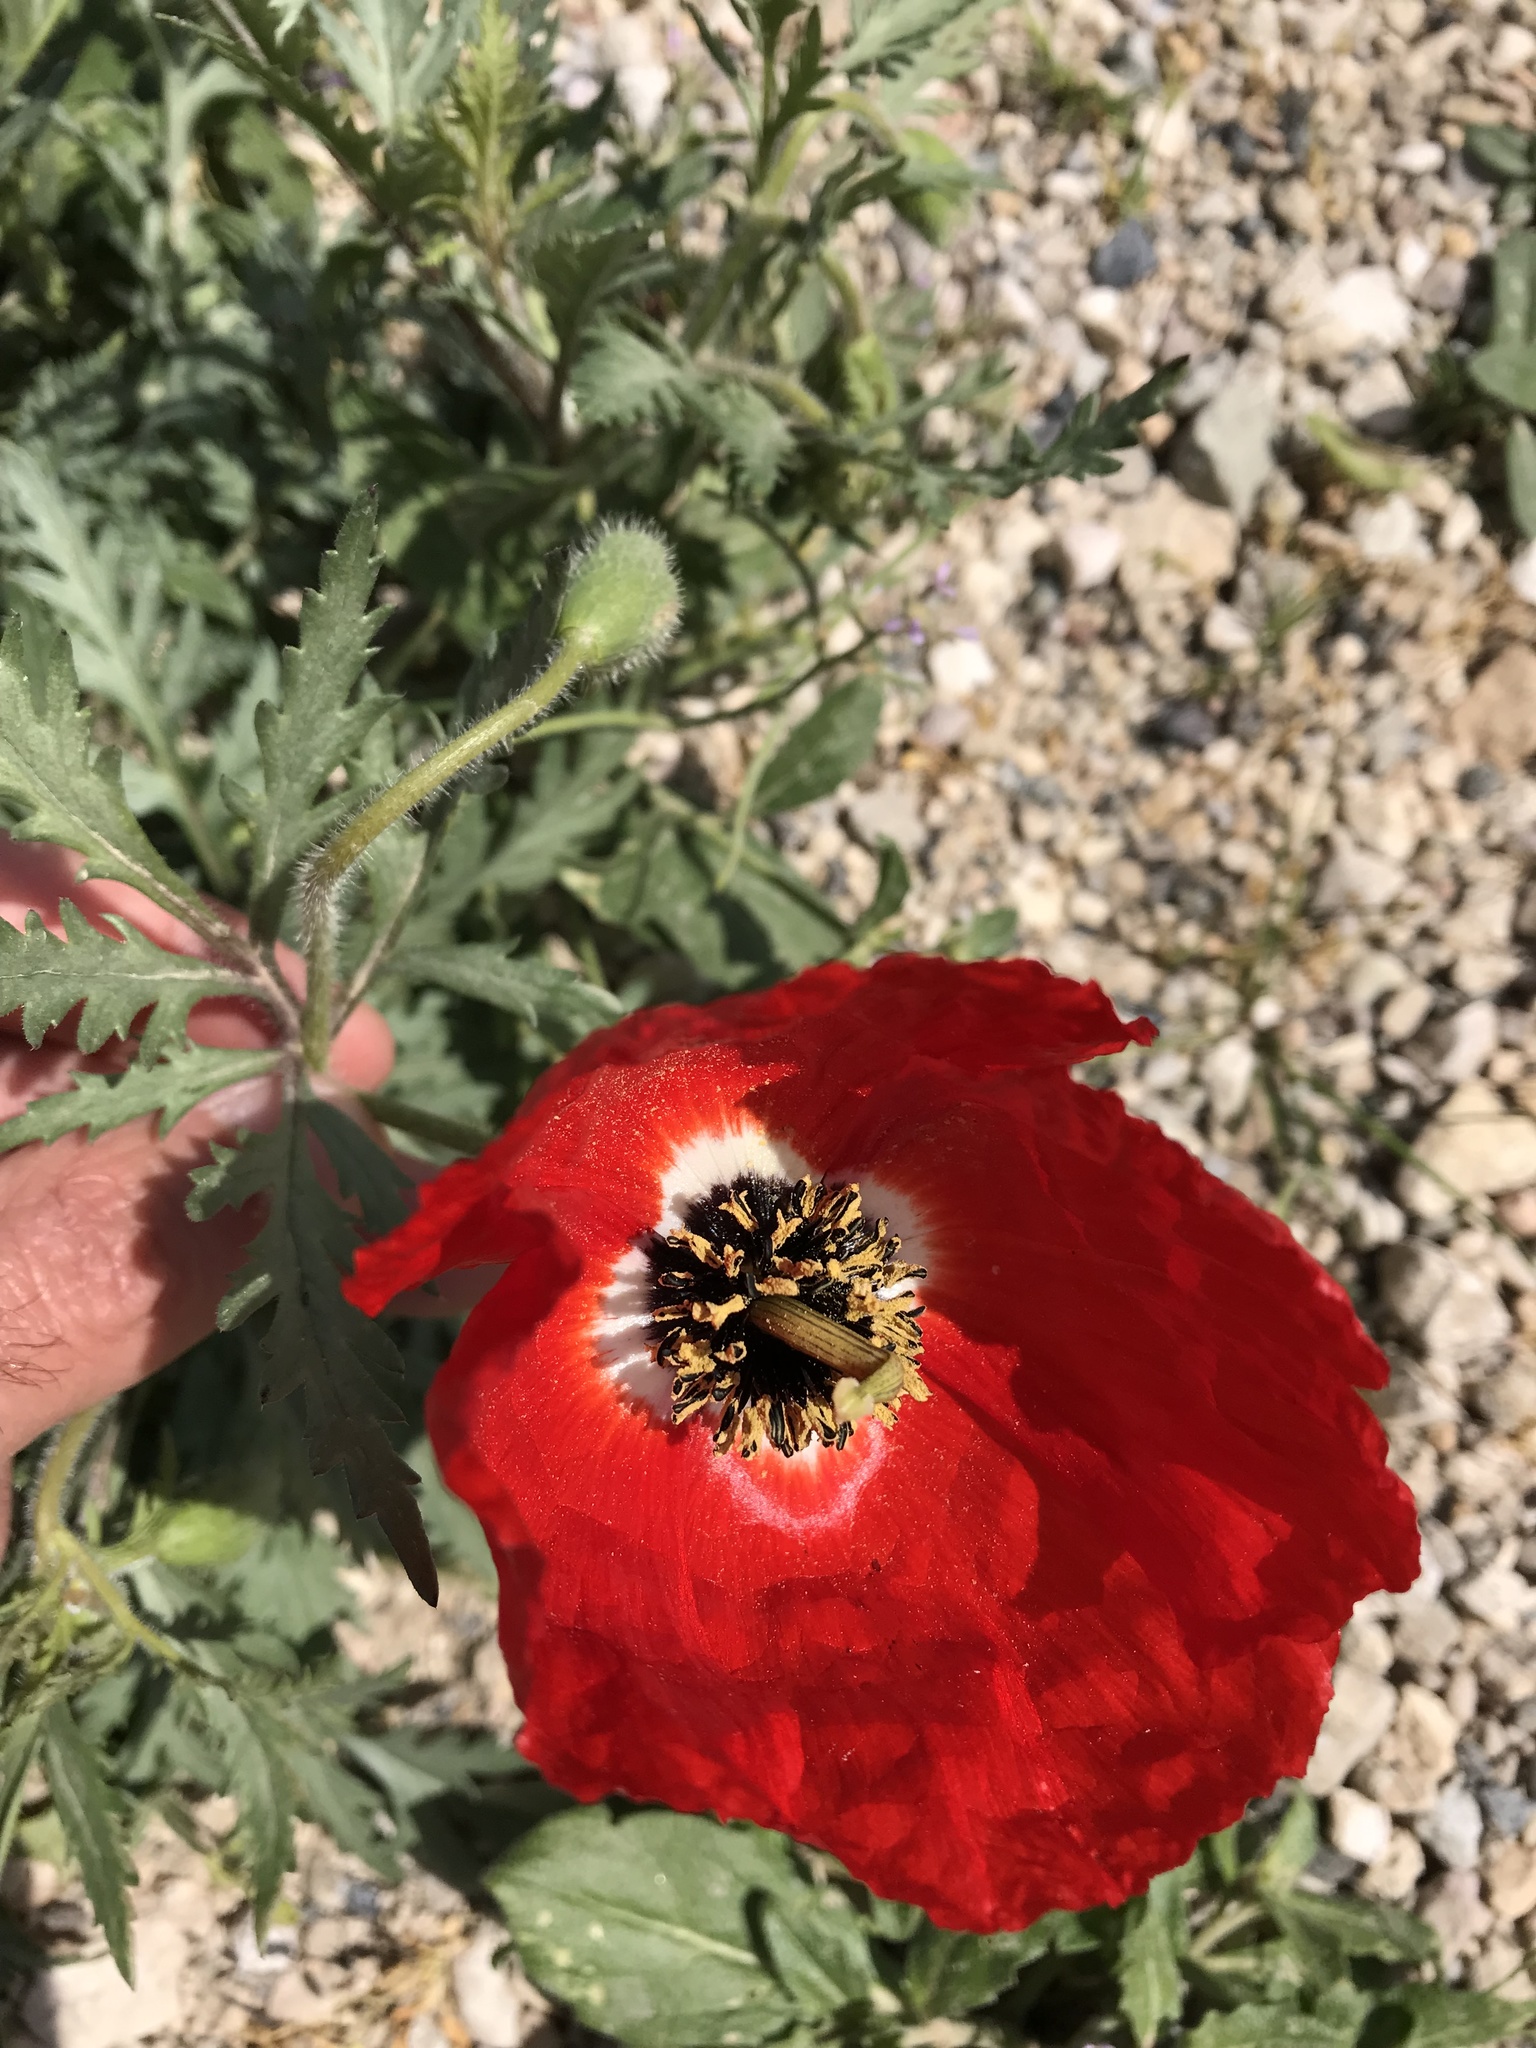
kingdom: Plantae
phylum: Tracheophyta
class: Magnoliopsida
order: Ranunculales
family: Papaveraceae
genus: Roemeria
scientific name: Roemeria refracta
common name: Spotted asian poppy
